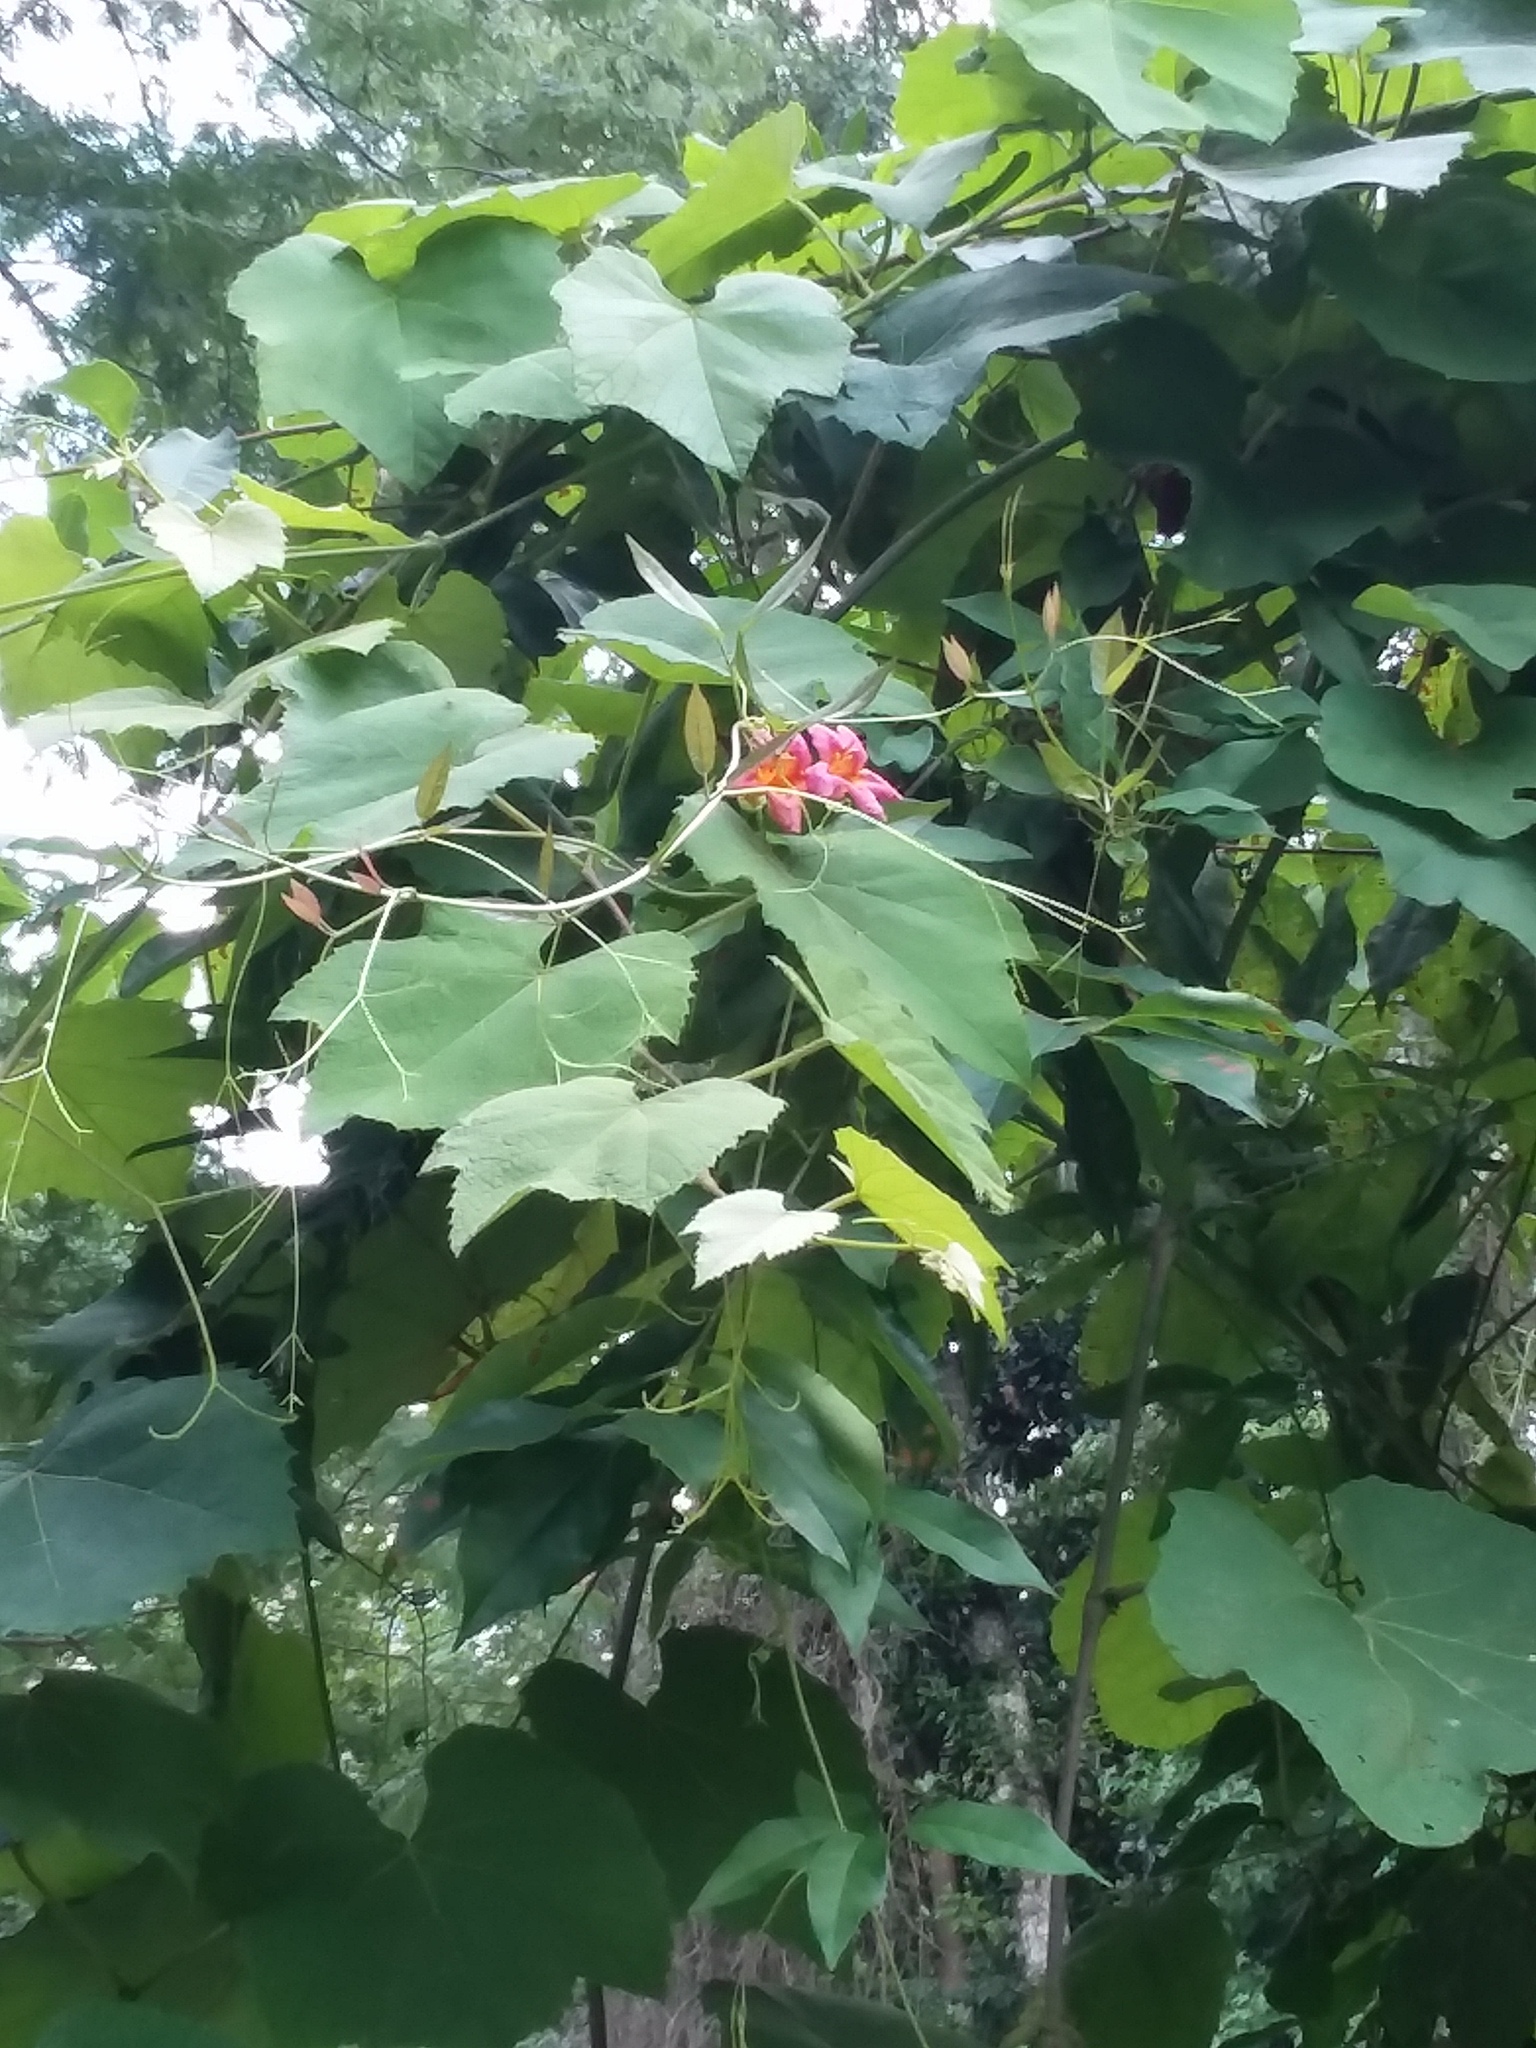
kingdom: Plantae
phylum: Tracheophyta
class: Magnoliopsida
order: Lamiales
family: Bignoniaceae
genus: Campsis
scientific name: Campsis radicans
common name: Trumpet-creeper
